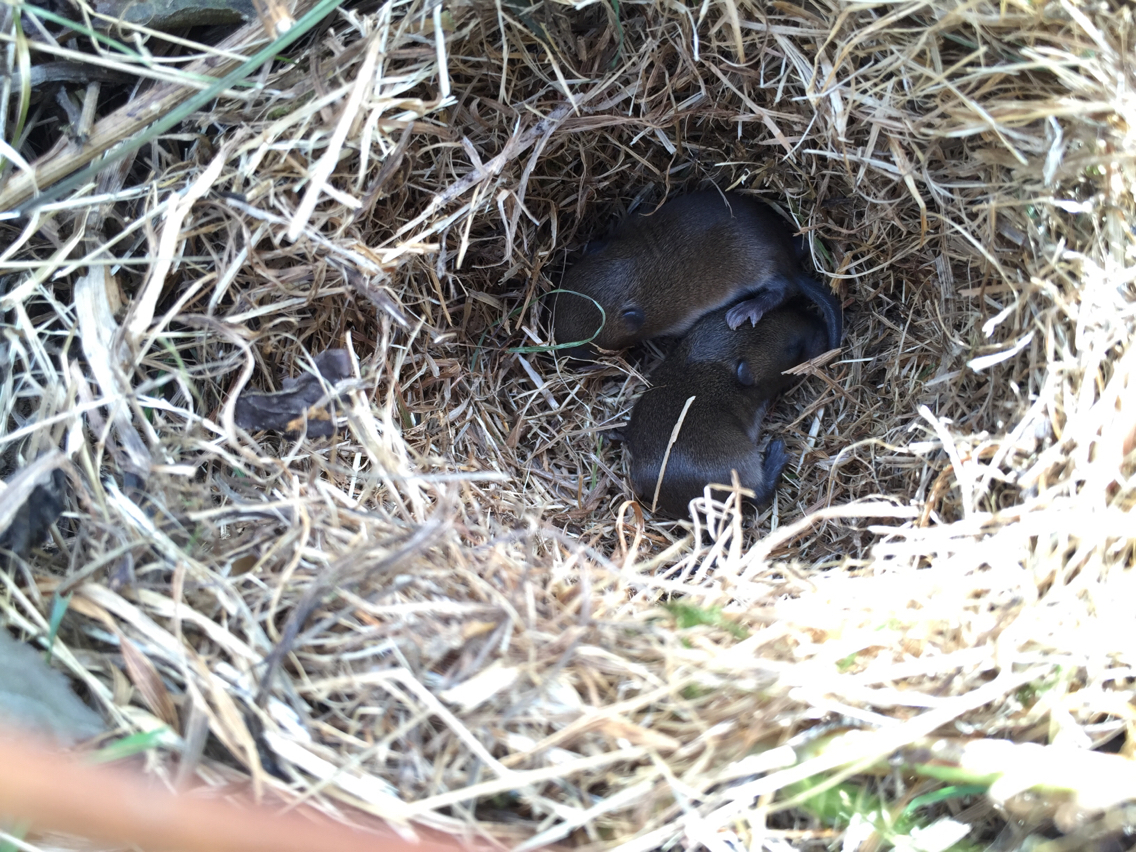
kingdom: Animalia
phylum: Chordata
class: Mammalia
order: Rodentia
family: Cricetidae
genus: Microtus
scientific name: Microtus pennsylvanicus
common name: Meadow vole
